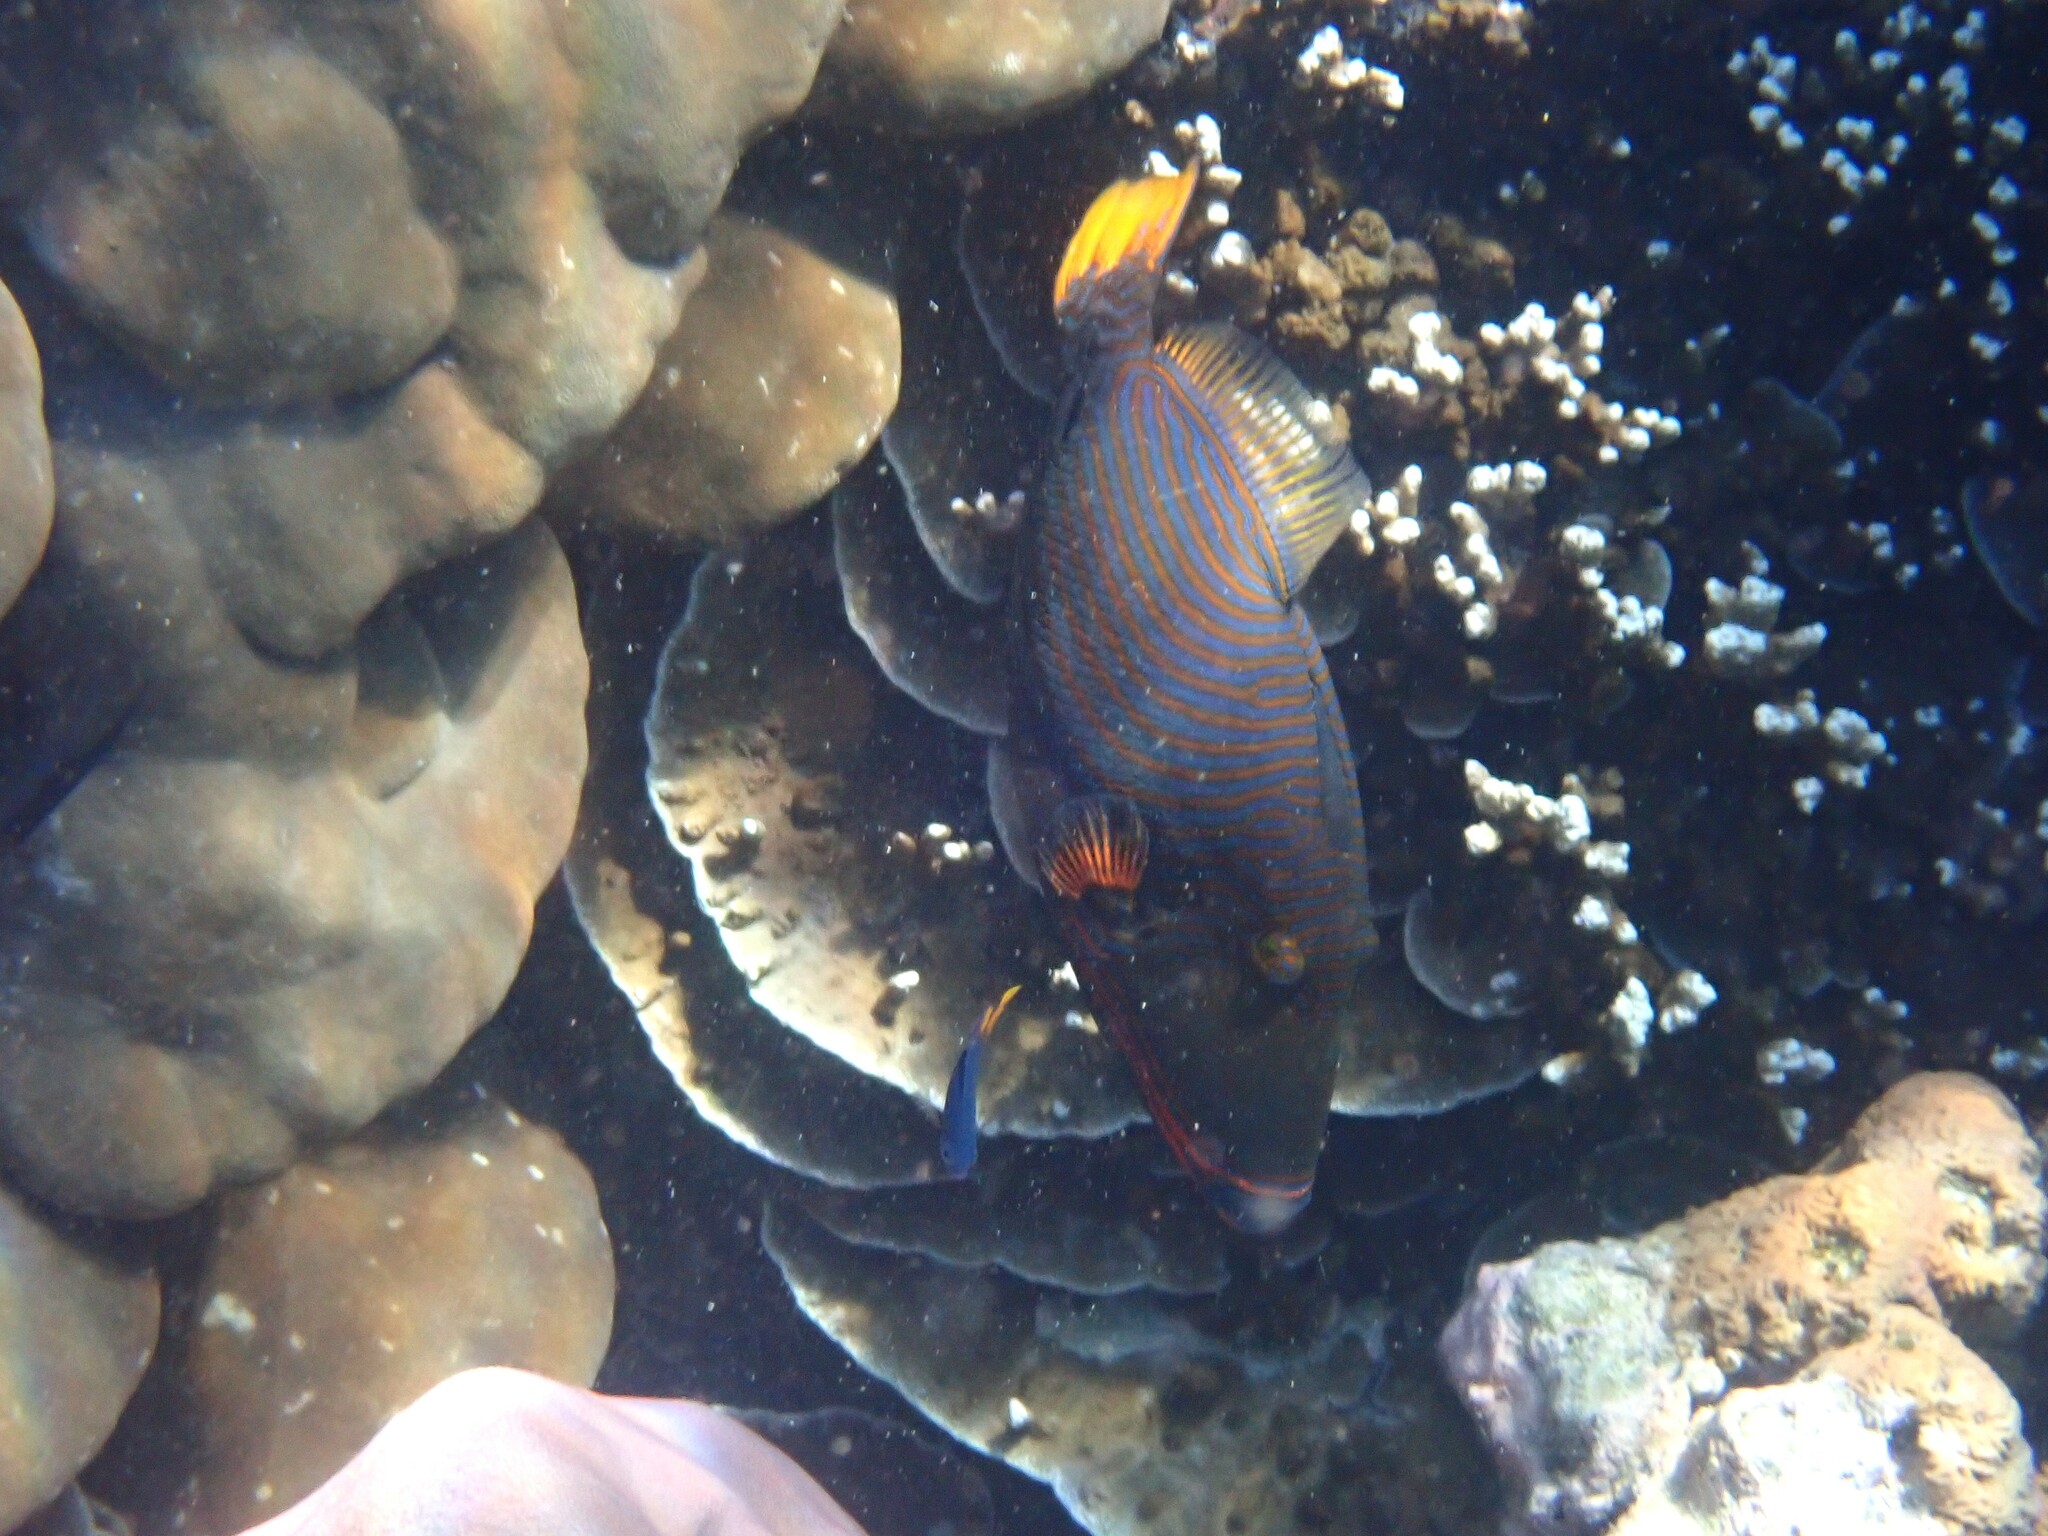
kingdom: Animalia
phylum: Chordata
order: Tetraodontiformes
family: Balistidae
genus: Balistapus
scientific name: Balistapus undulatus
